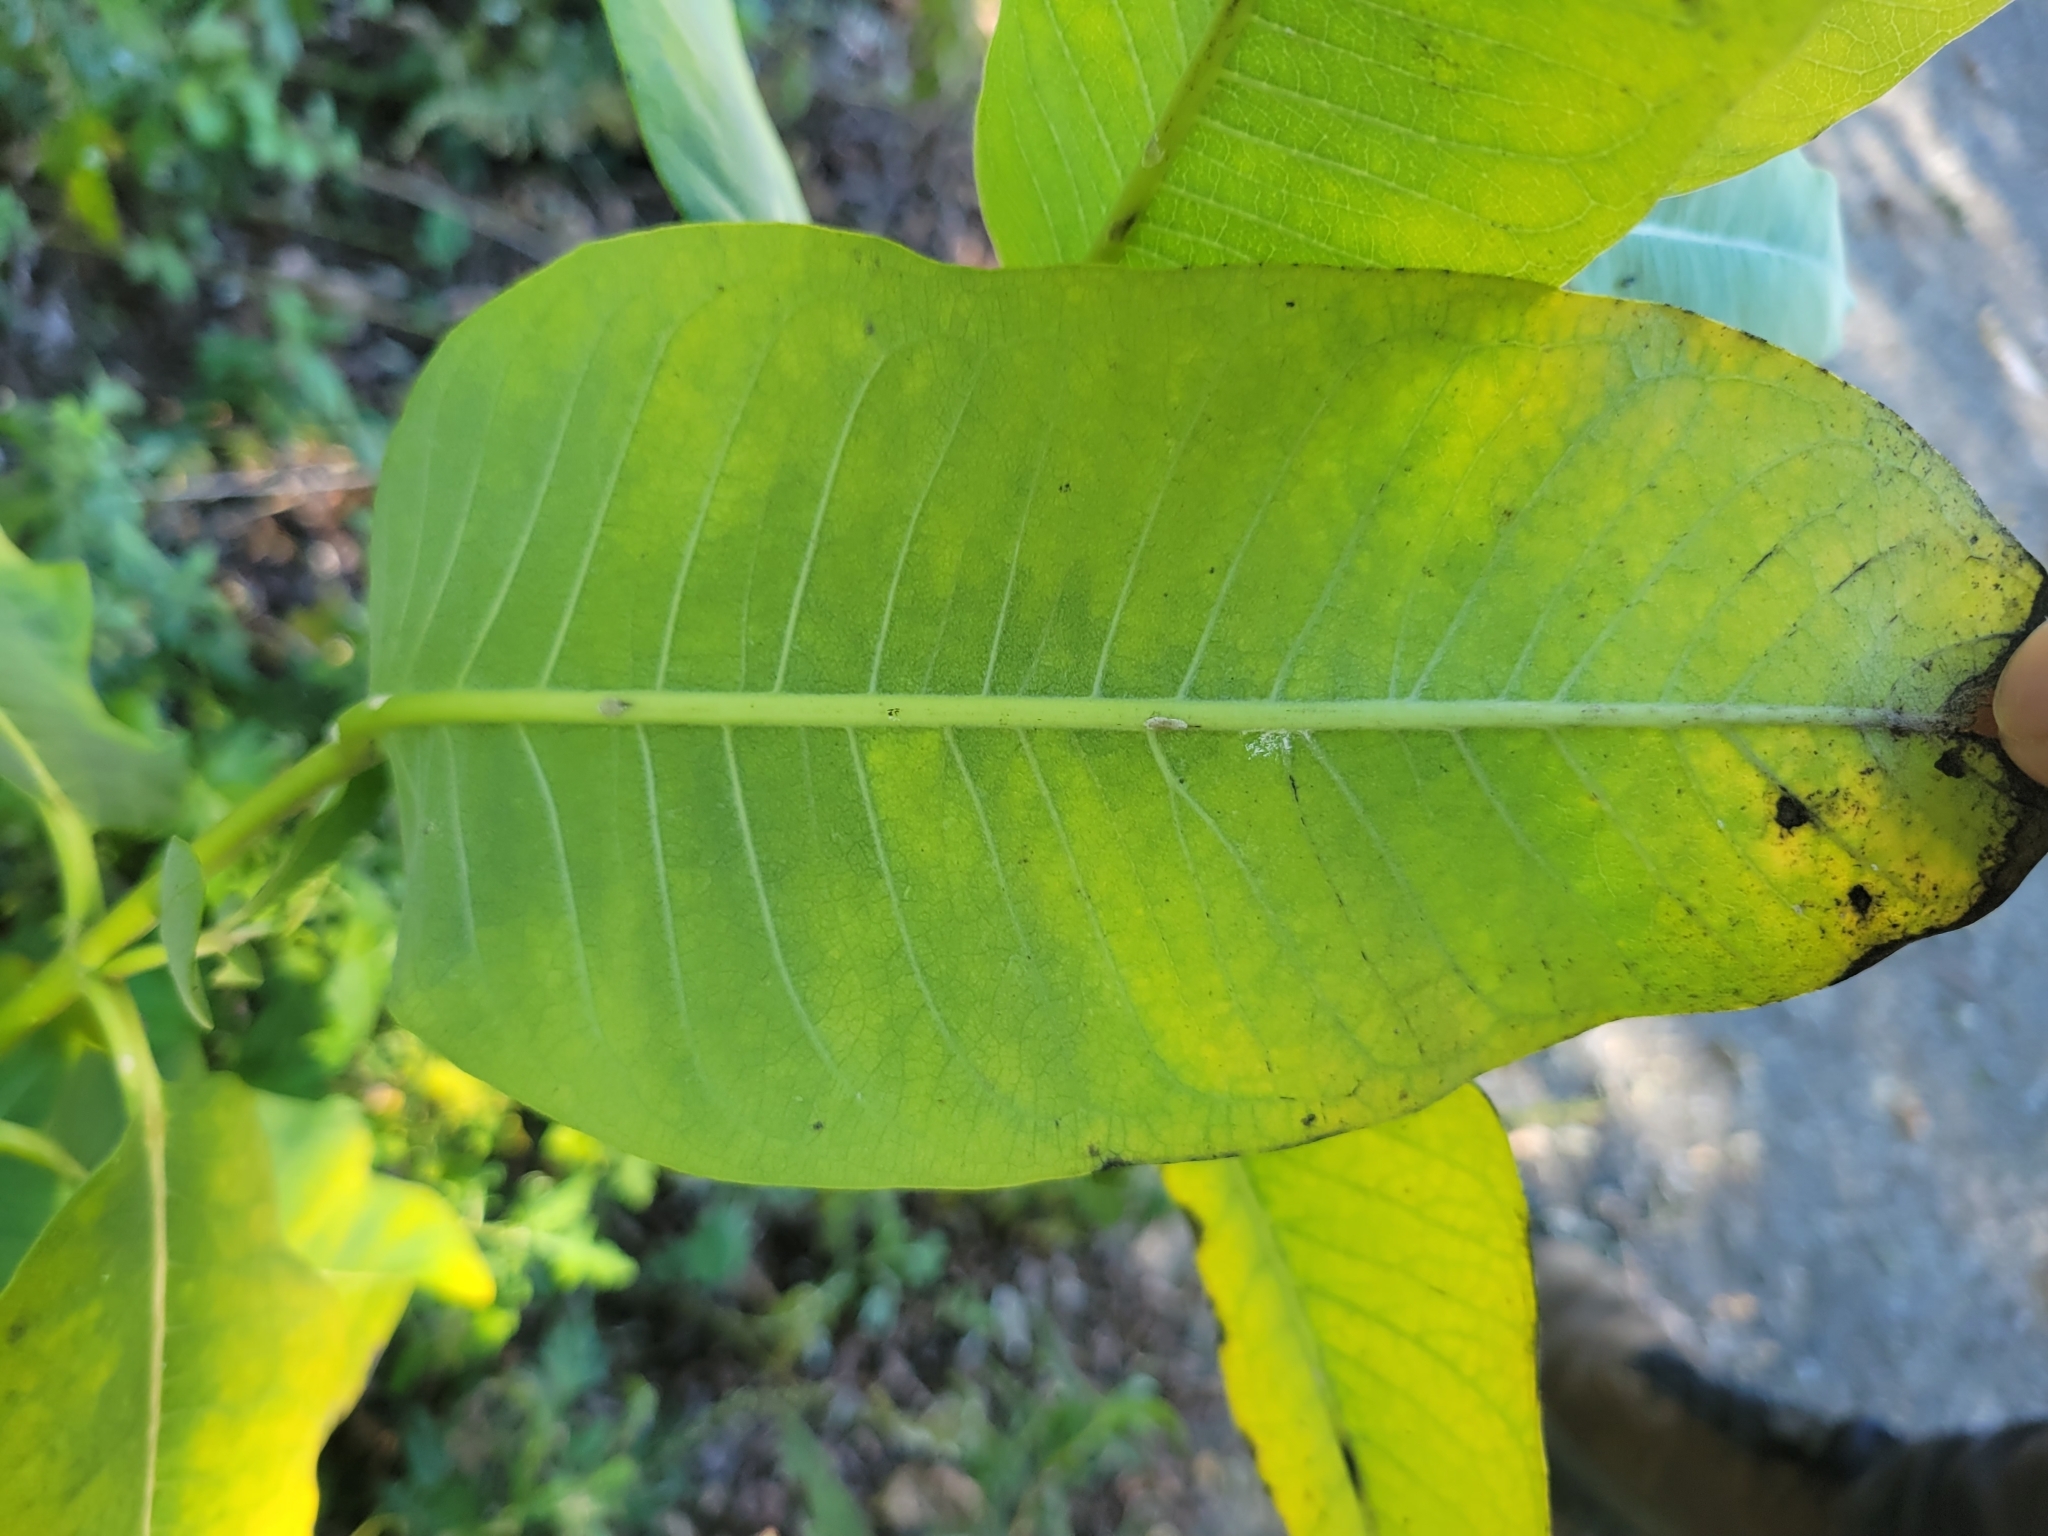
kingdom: Plantae
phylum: Tracheophyta
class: Magnoliopsida
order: Gentianales
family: Apocynaceae
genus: Asclepias
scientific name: Asclepias syriaca
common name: Common milkweed
